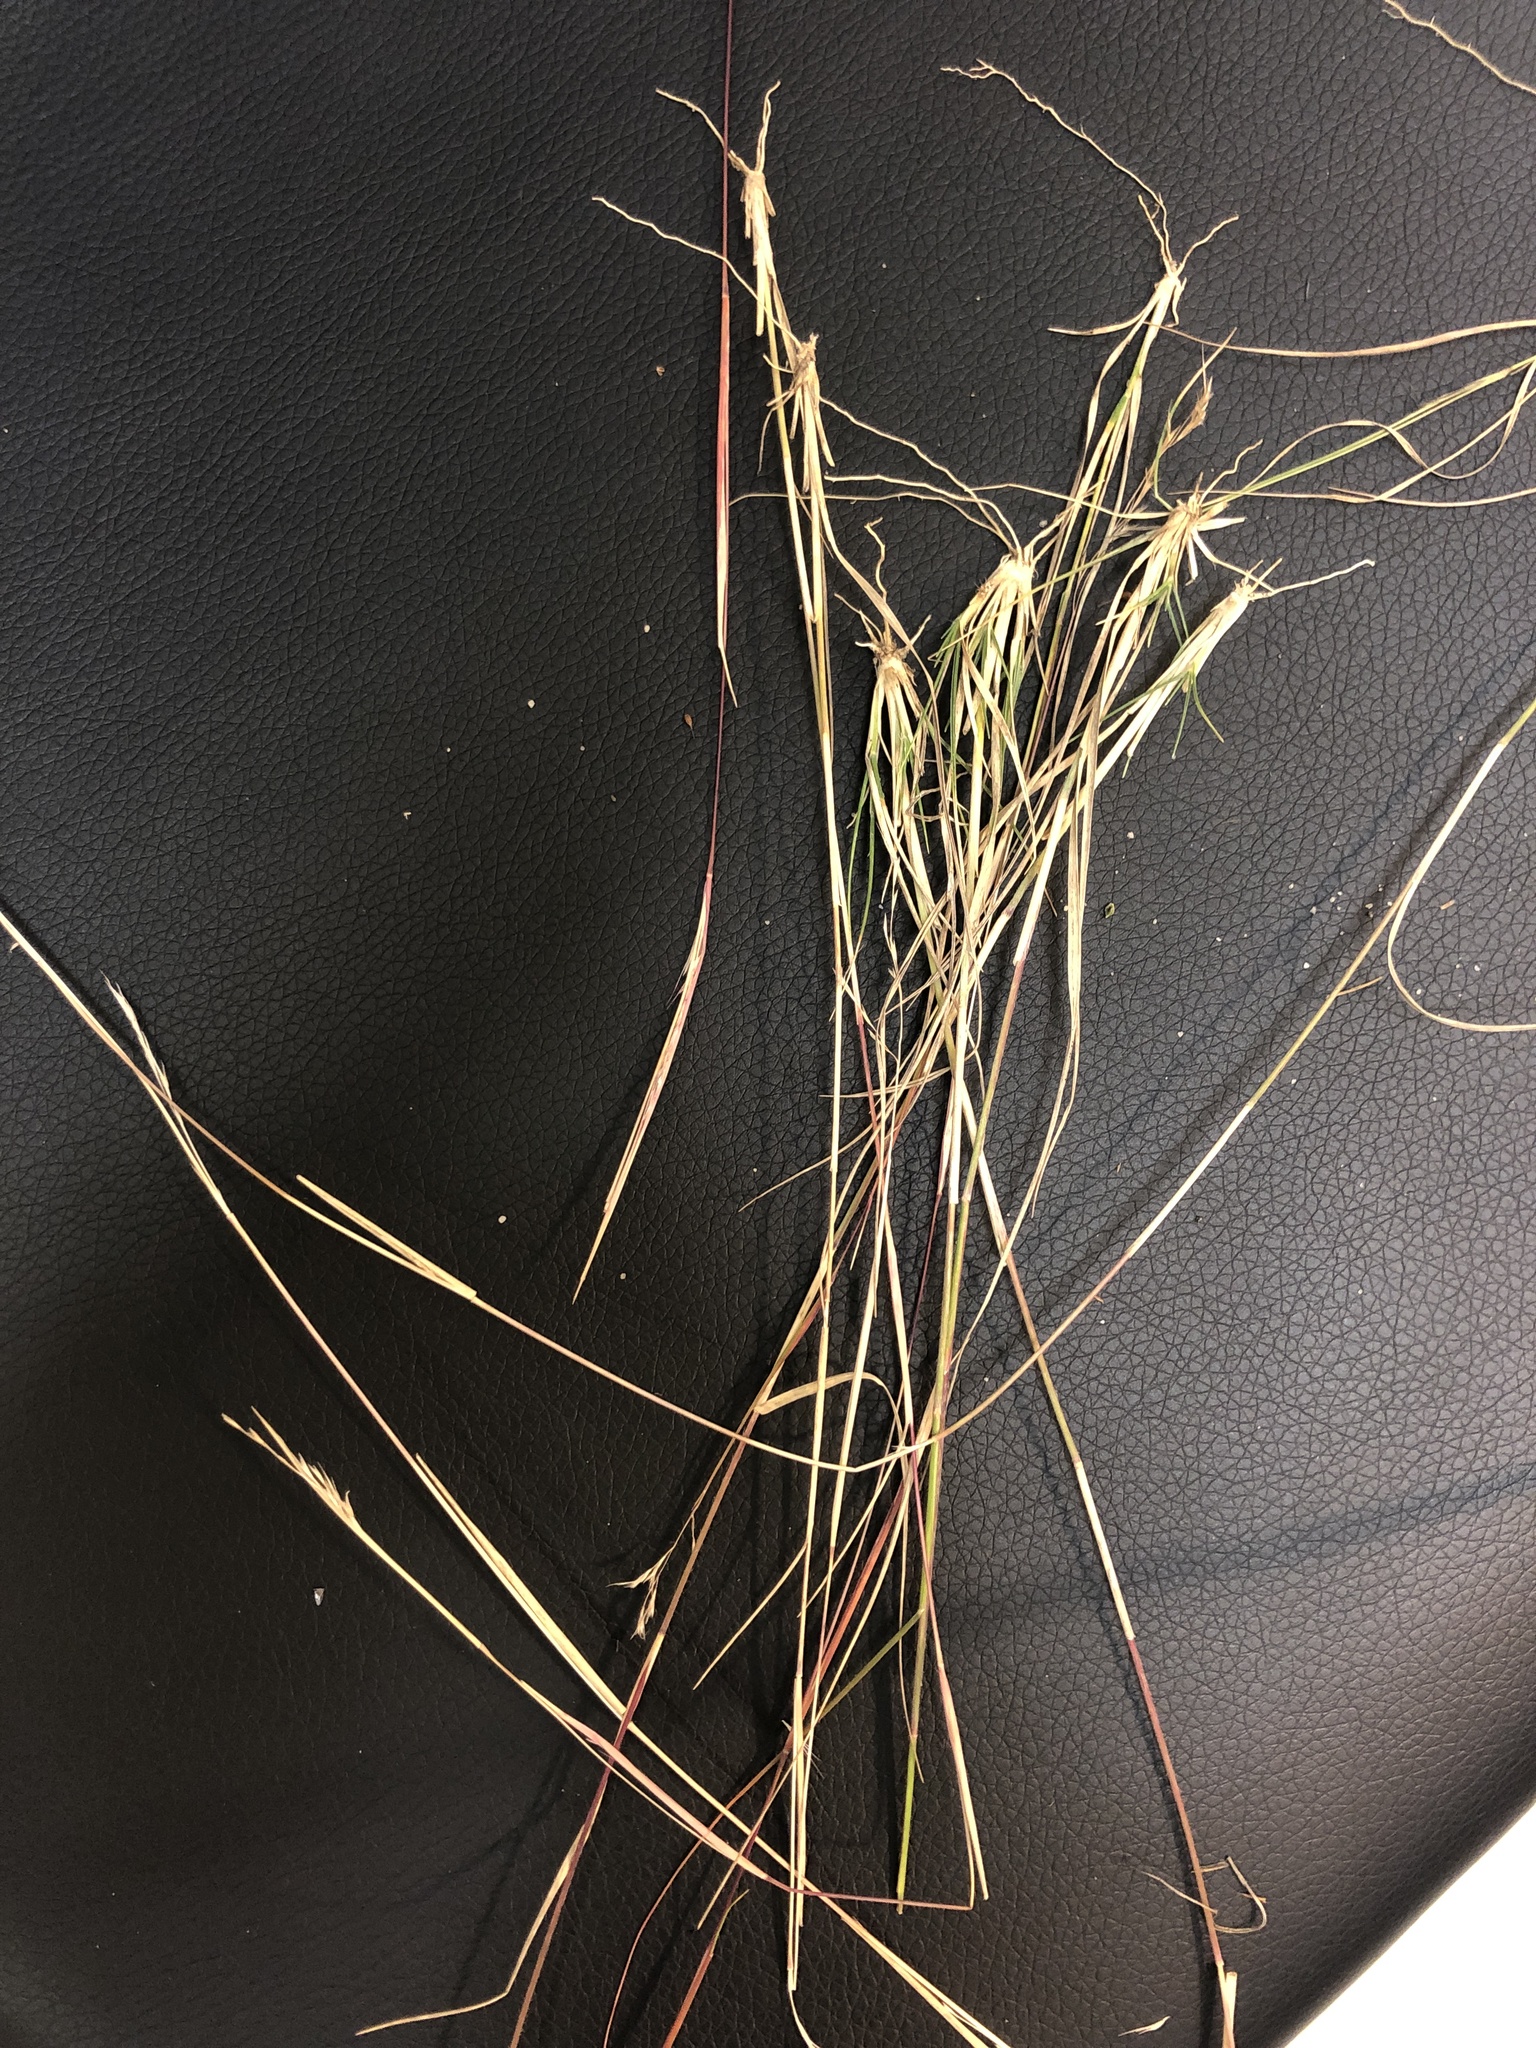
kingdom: Plantae
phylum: Tracheophyta
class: Liliopsida
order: Poales
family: Poaceae
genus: Triplasis
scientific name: Triplasis americana
